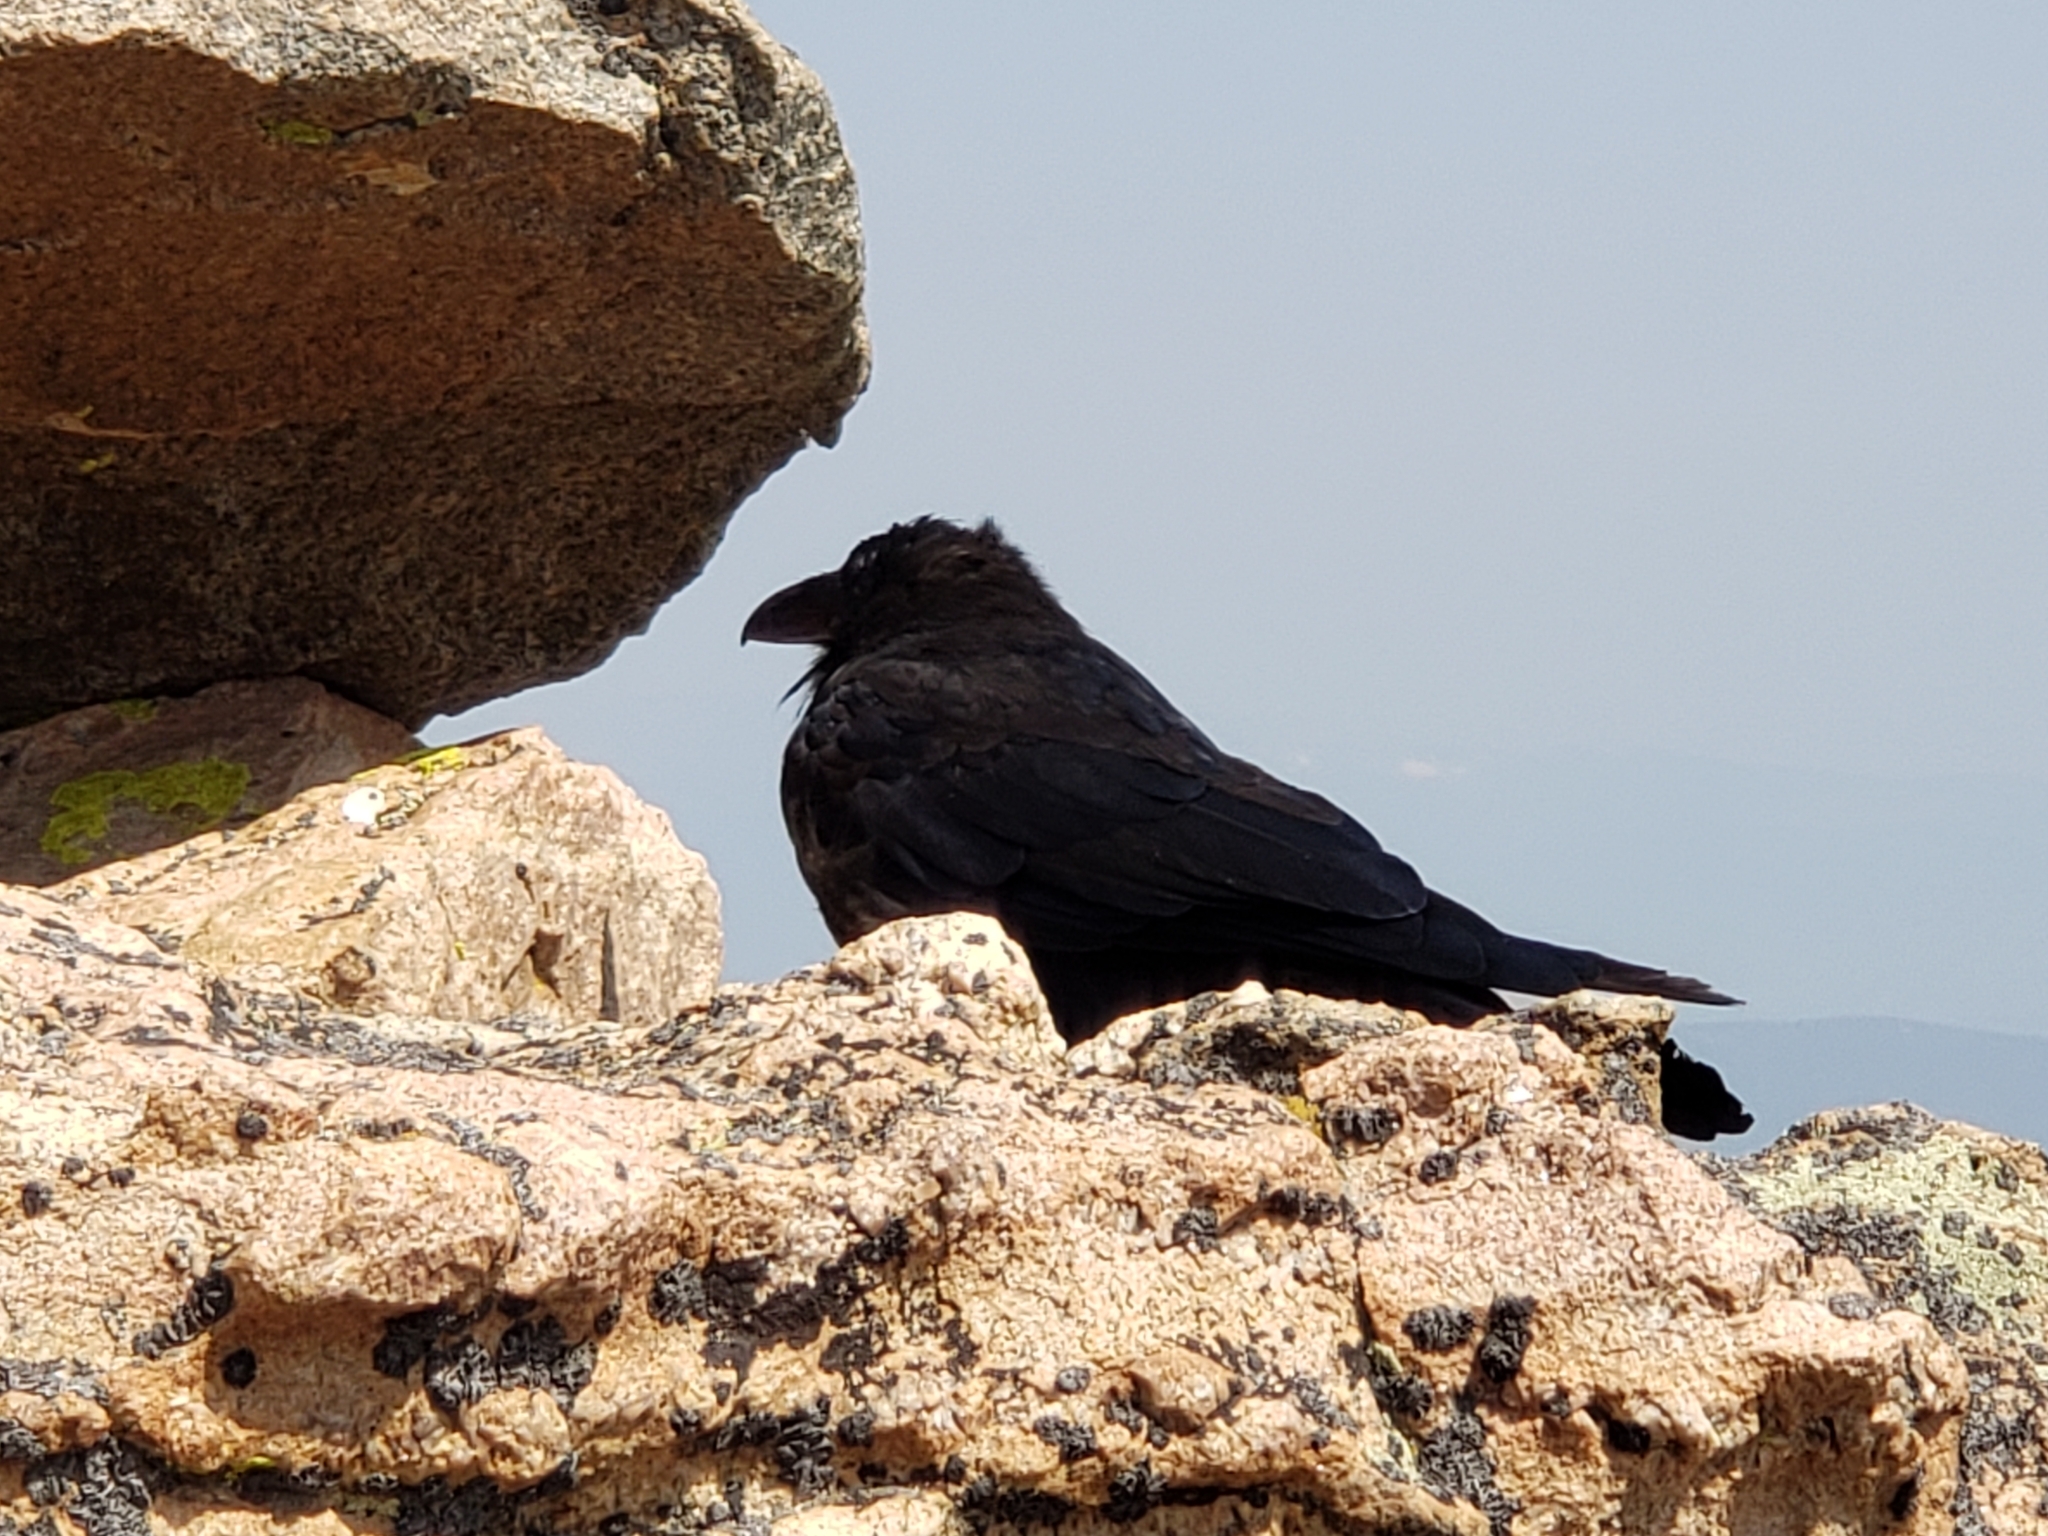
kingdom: Animalia
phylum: Chordata
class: Aves
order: Passeriformes
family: Corvidae
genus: Corvus
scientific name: Corvus corax
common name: Common raven
